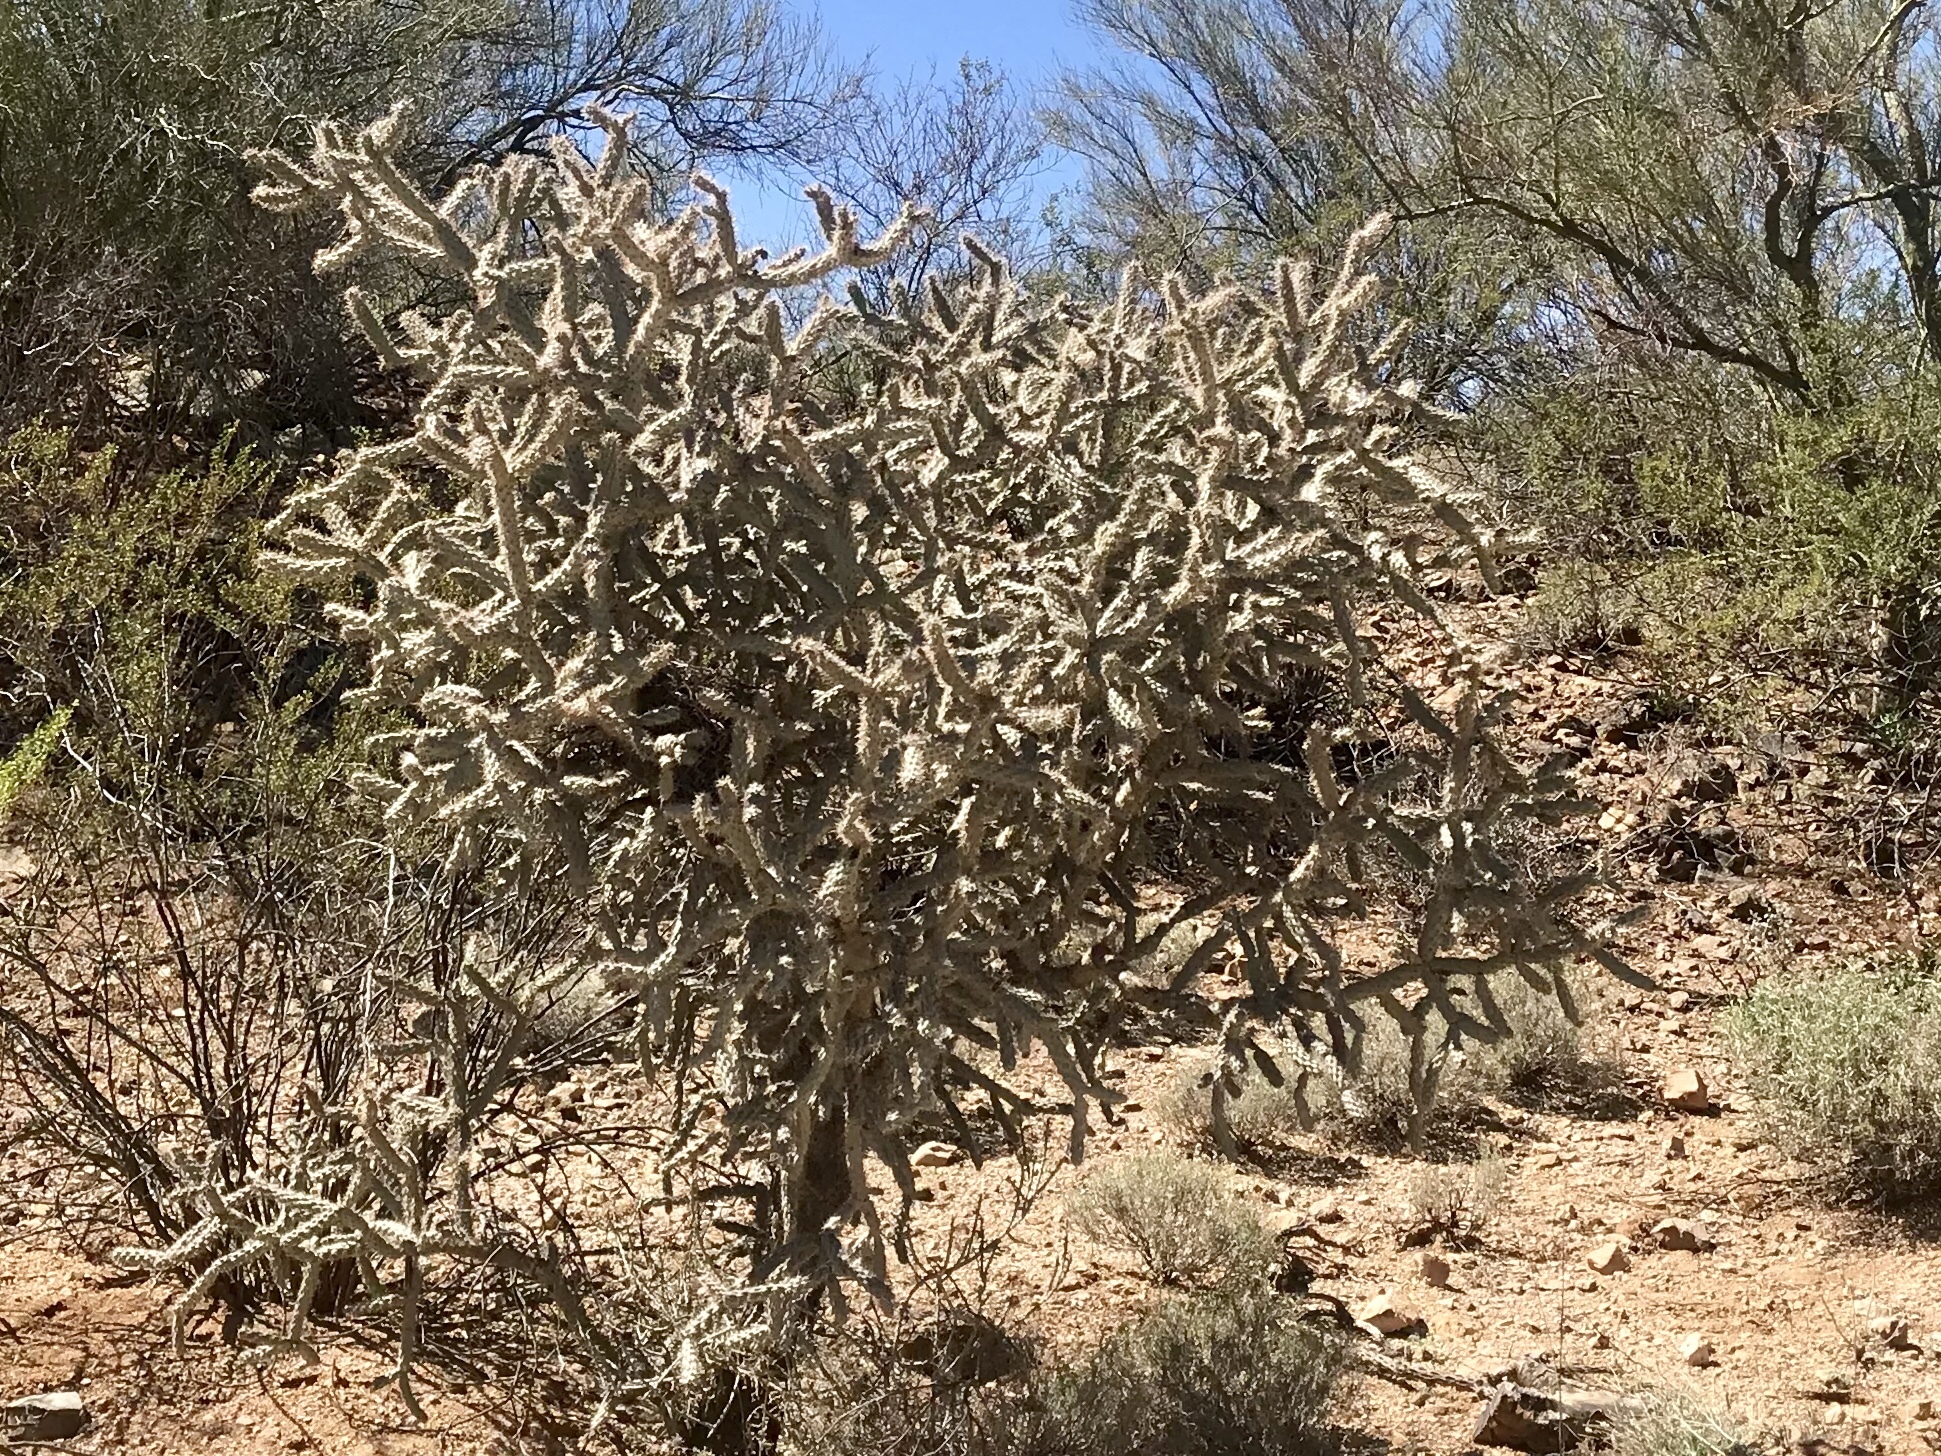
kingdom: Plantae
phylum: Tracheophyta
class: Magnoliopsida
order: Caryophyllales
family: Cactaceae
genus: Cylindropuntia
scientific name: Cylindropuntia acanthocarpa
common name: Buckhorn cholla
